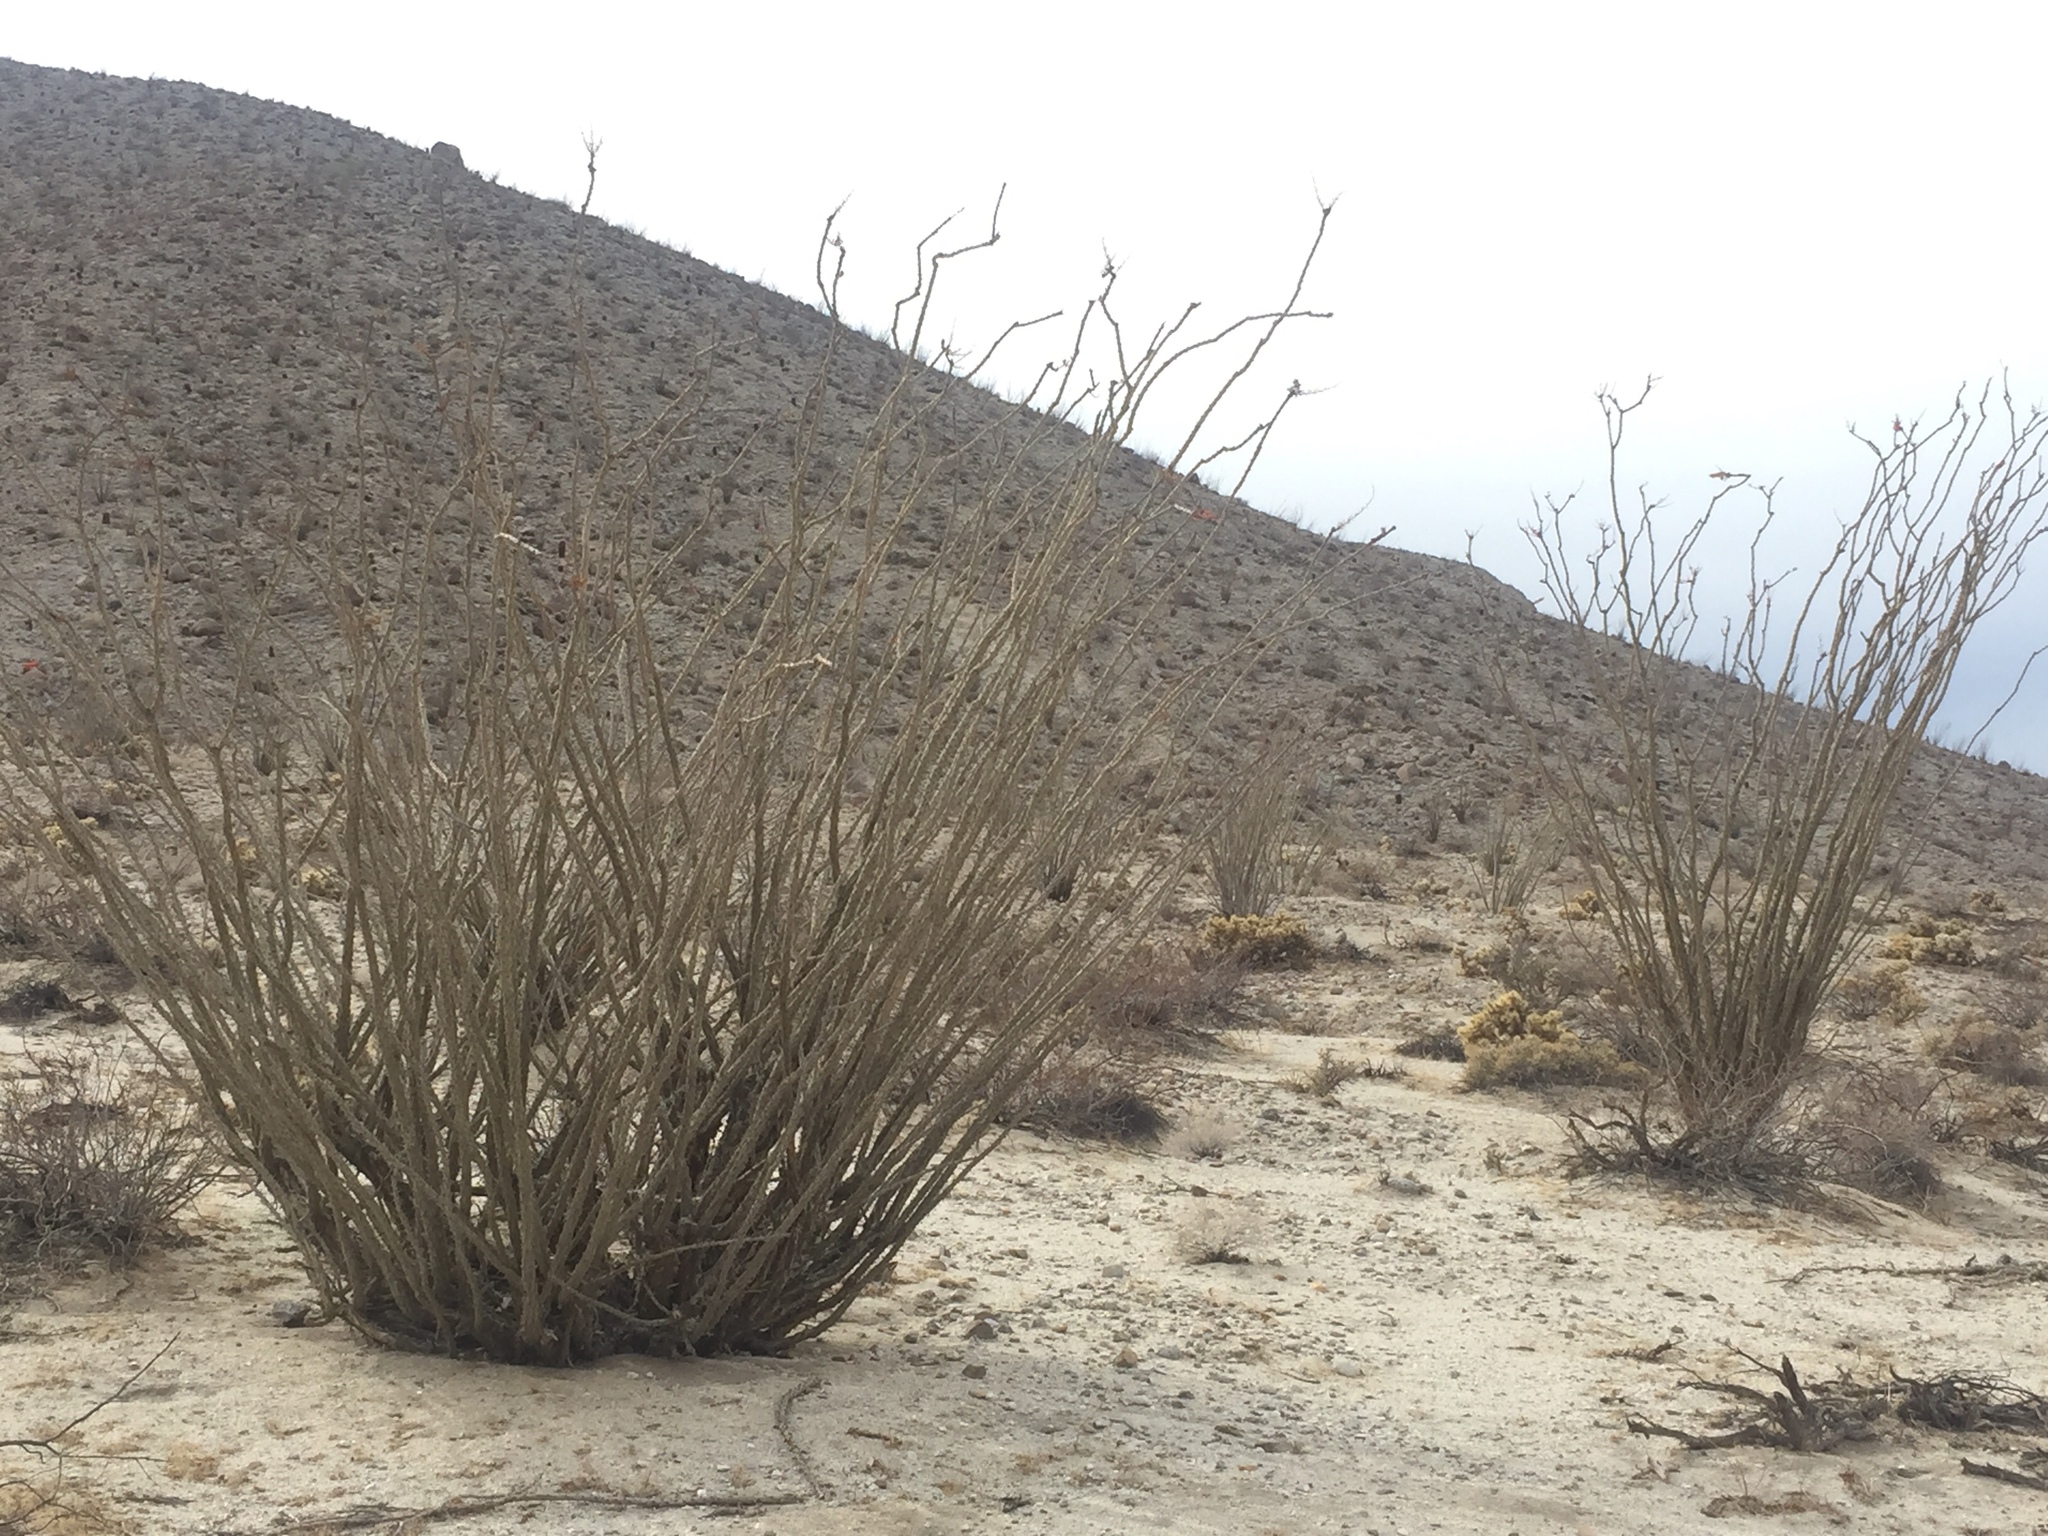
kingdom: Plantae
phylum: Tracheophyta
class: Magnoliopsida
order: Ericales
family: Fouquieriaceae
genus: Fouquieria
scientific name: Fouquieria splendens
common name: Vine-cactus
